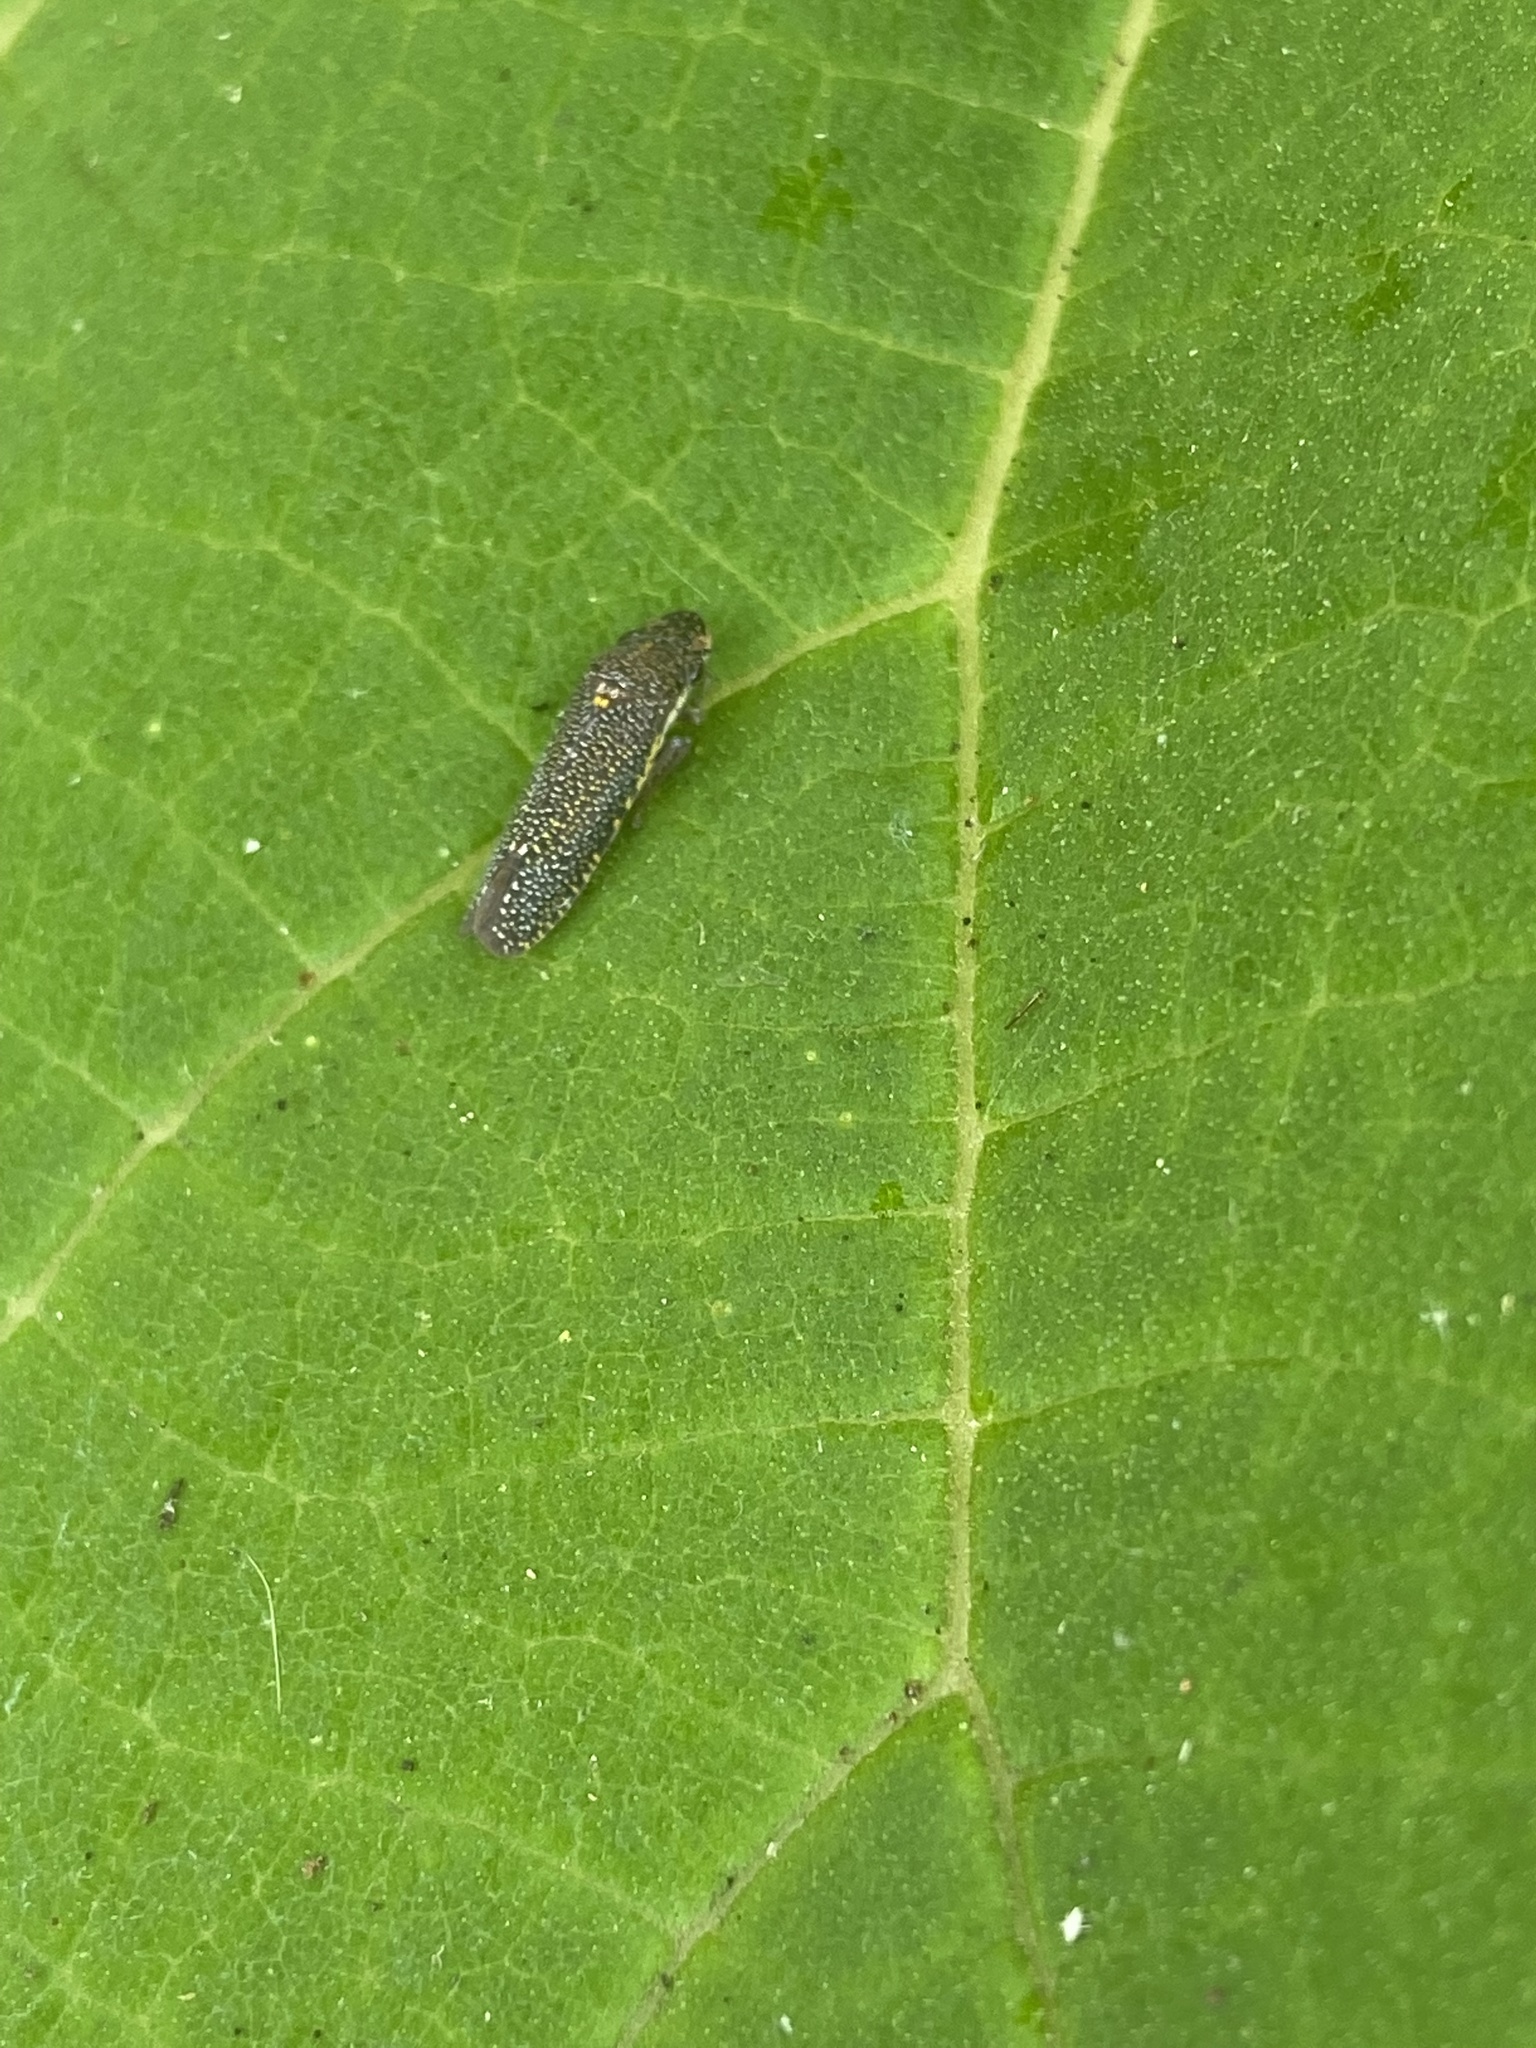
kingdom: Animalia
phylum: Arthropoda
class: Insecta
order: Hemiptera
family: Cicadellidae
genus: Paraulacizes
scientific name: Paraulacizes irrorata
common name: Speckled sharpshooter
